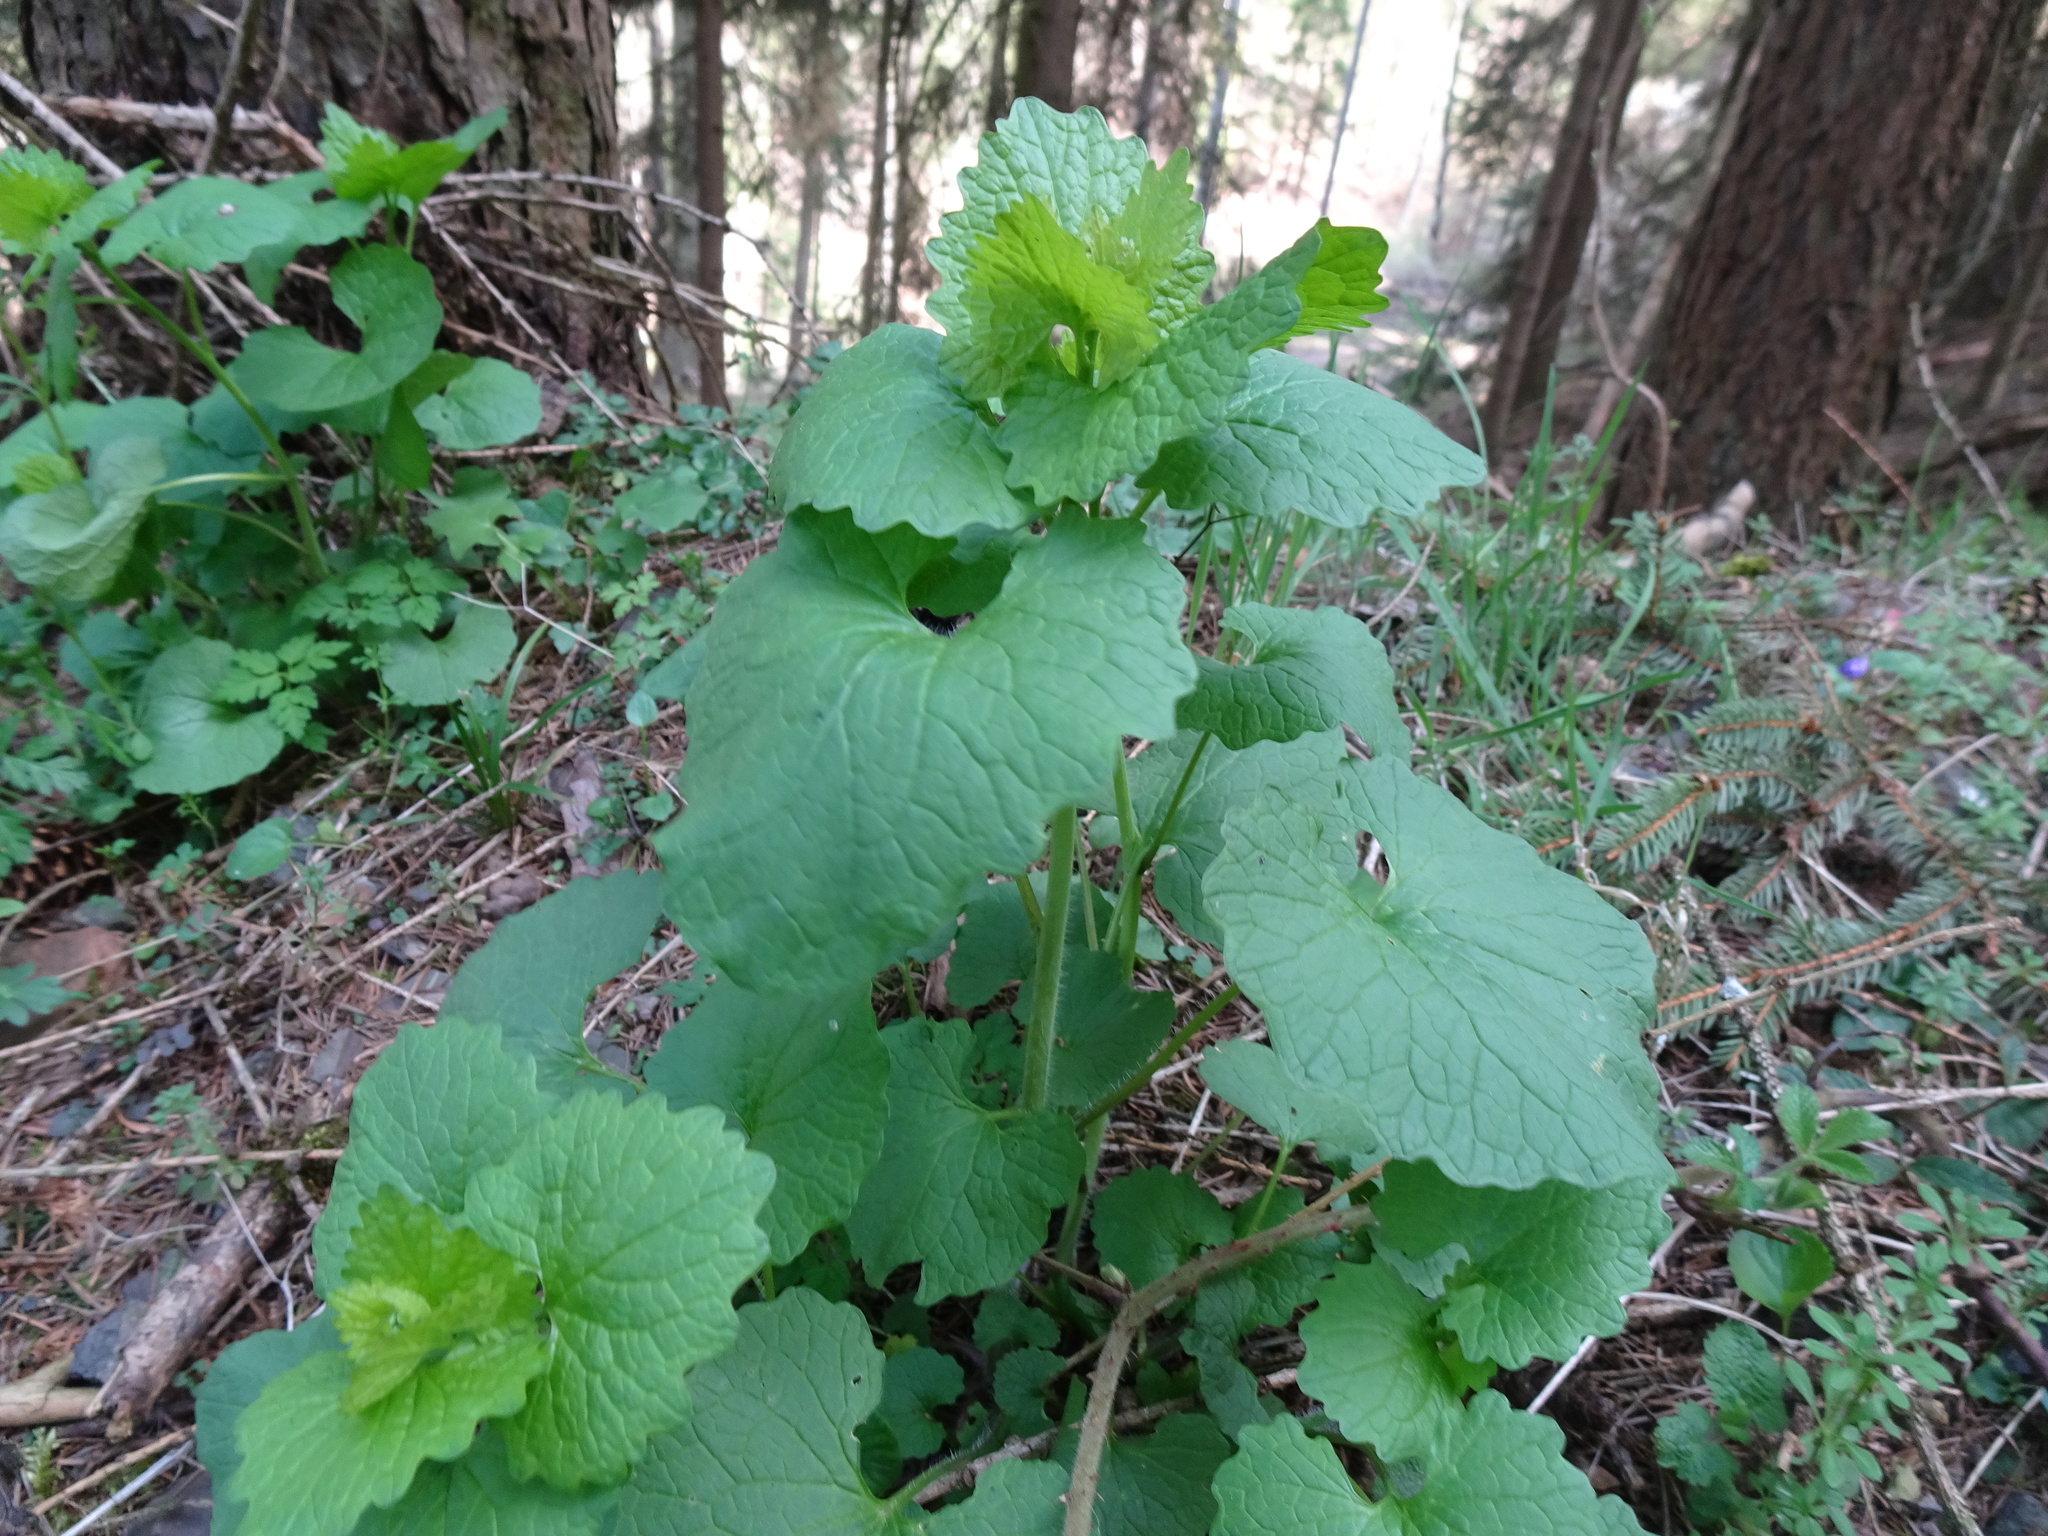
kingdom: Plantae
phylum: Tracheophyta
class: Magnoliopsida
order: Brassicales
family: Brassicaceae
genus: Alliaria
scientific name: Alliaria petiolata
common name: Garlic mustard
